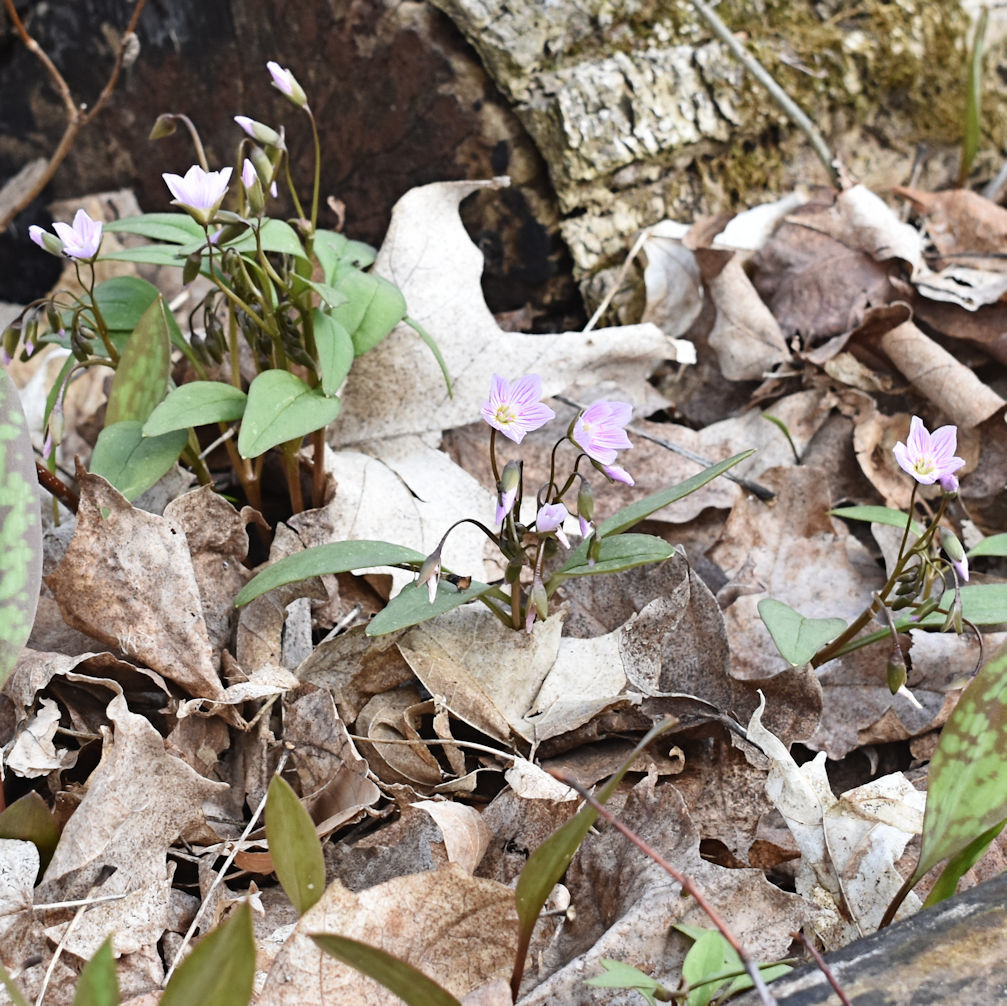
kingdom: Plantae
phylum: Tracheophyta
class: Magnoliopsida
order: Caryophyllales
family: Montiaceae
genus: Claytonia
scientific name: Claytonia caroliniana
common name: Carolina spring beauty
